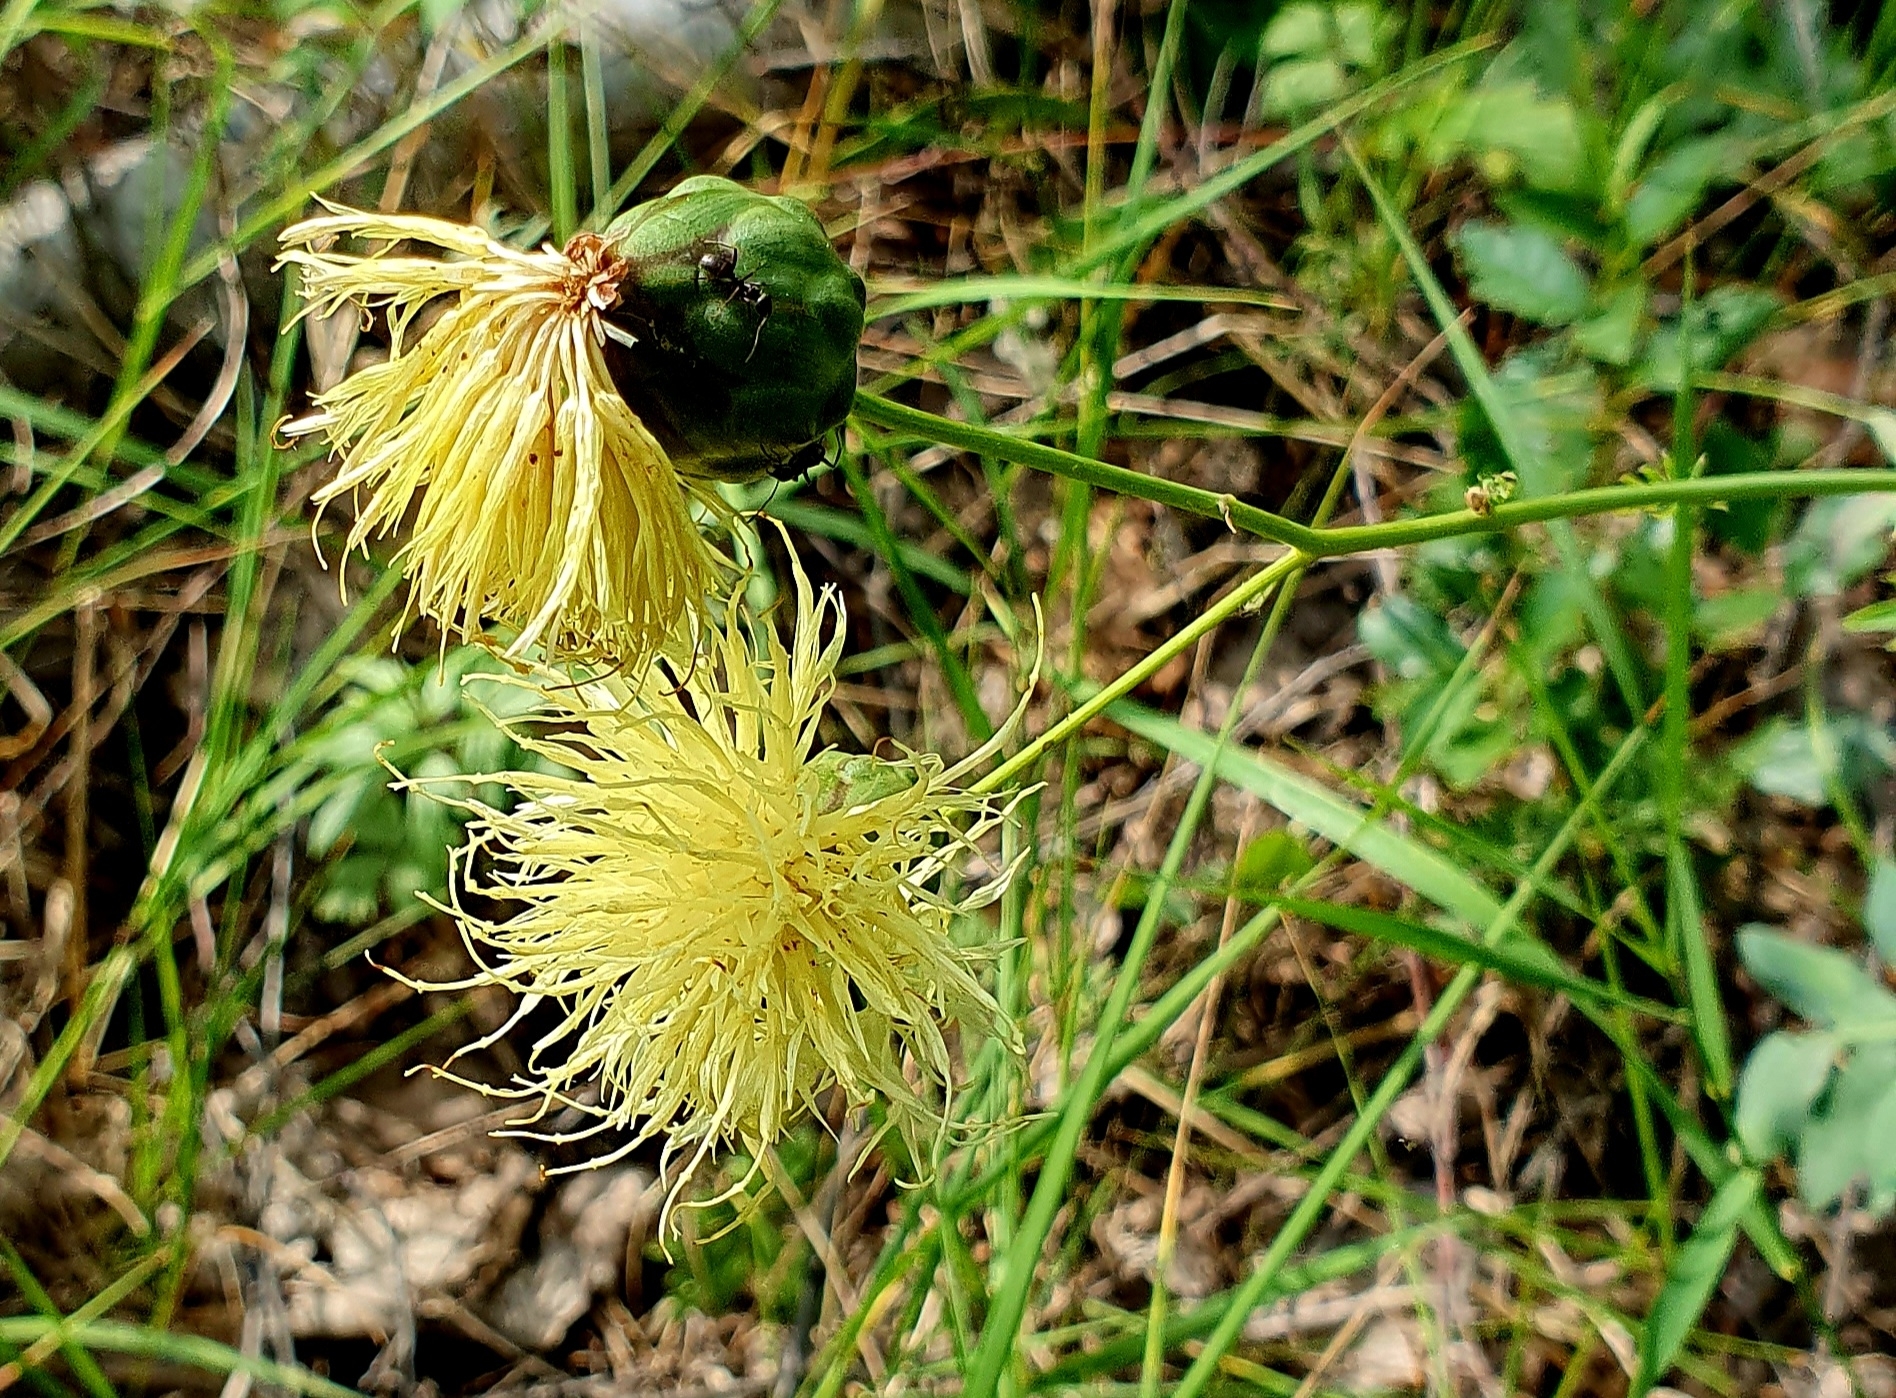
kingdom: Plantae
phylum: Tracheophyta
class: Magnoliopsida
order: Asterales
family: Asteraceae
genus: Rhaponticoides
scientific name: Rhaponticoides ruthenica
